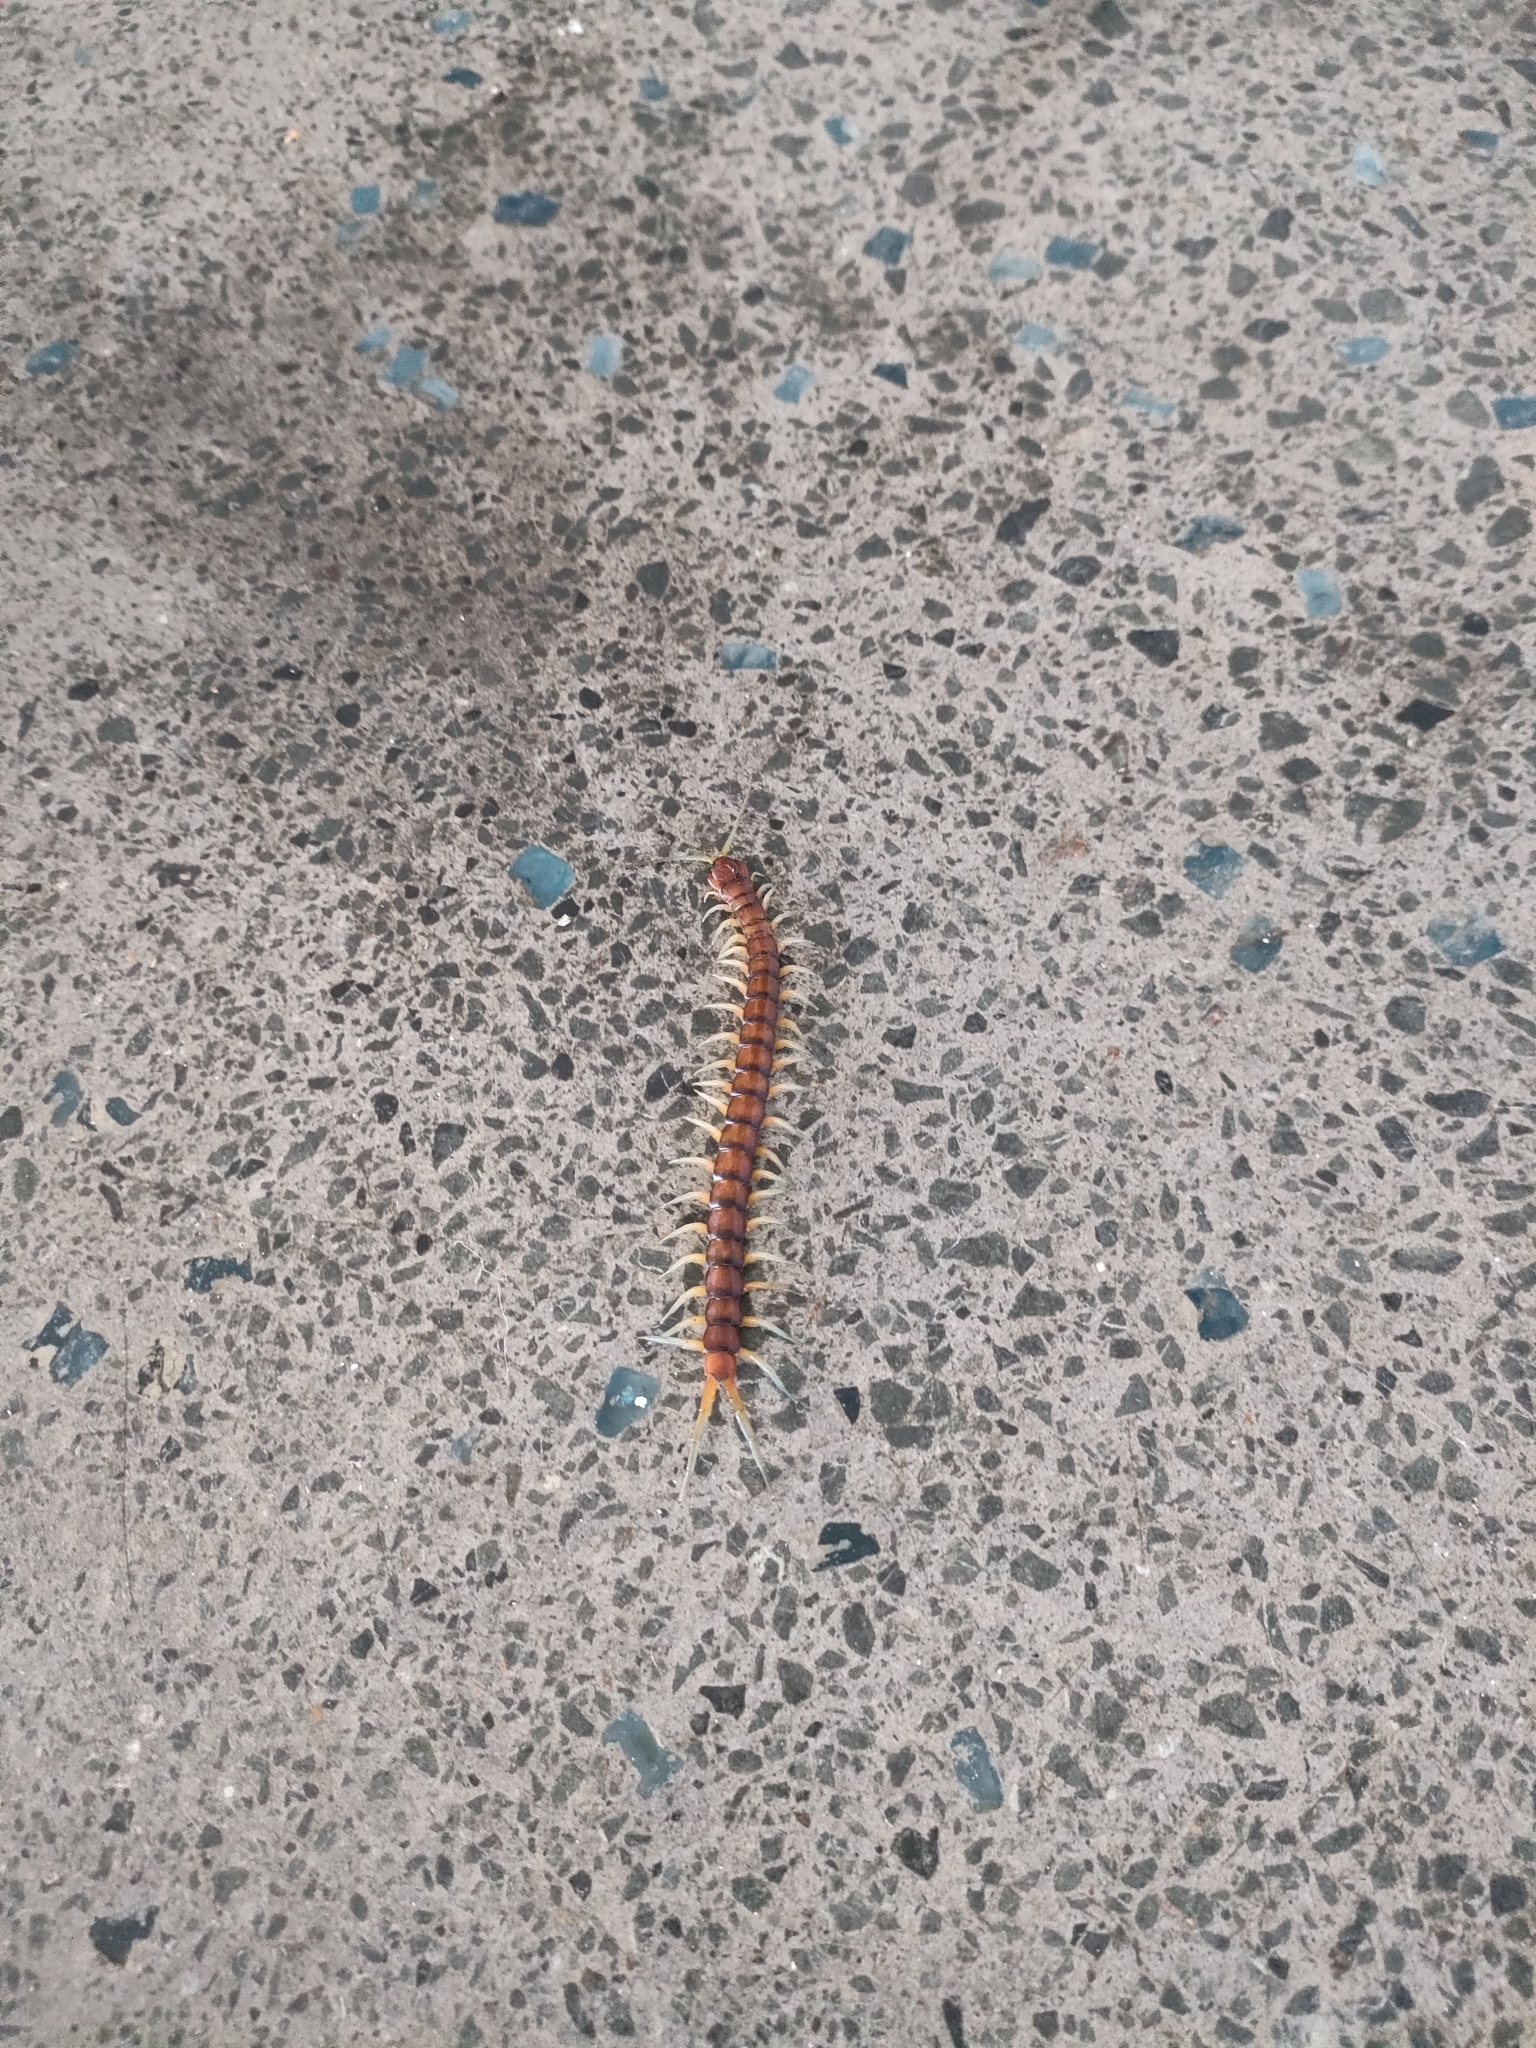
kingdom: Animalia
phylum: Arthropoda
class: Chilopoda
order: Scolopendromorpha
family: Scolopendridae
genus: Cormocephalus
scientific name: Cormocephalus rubriceps
